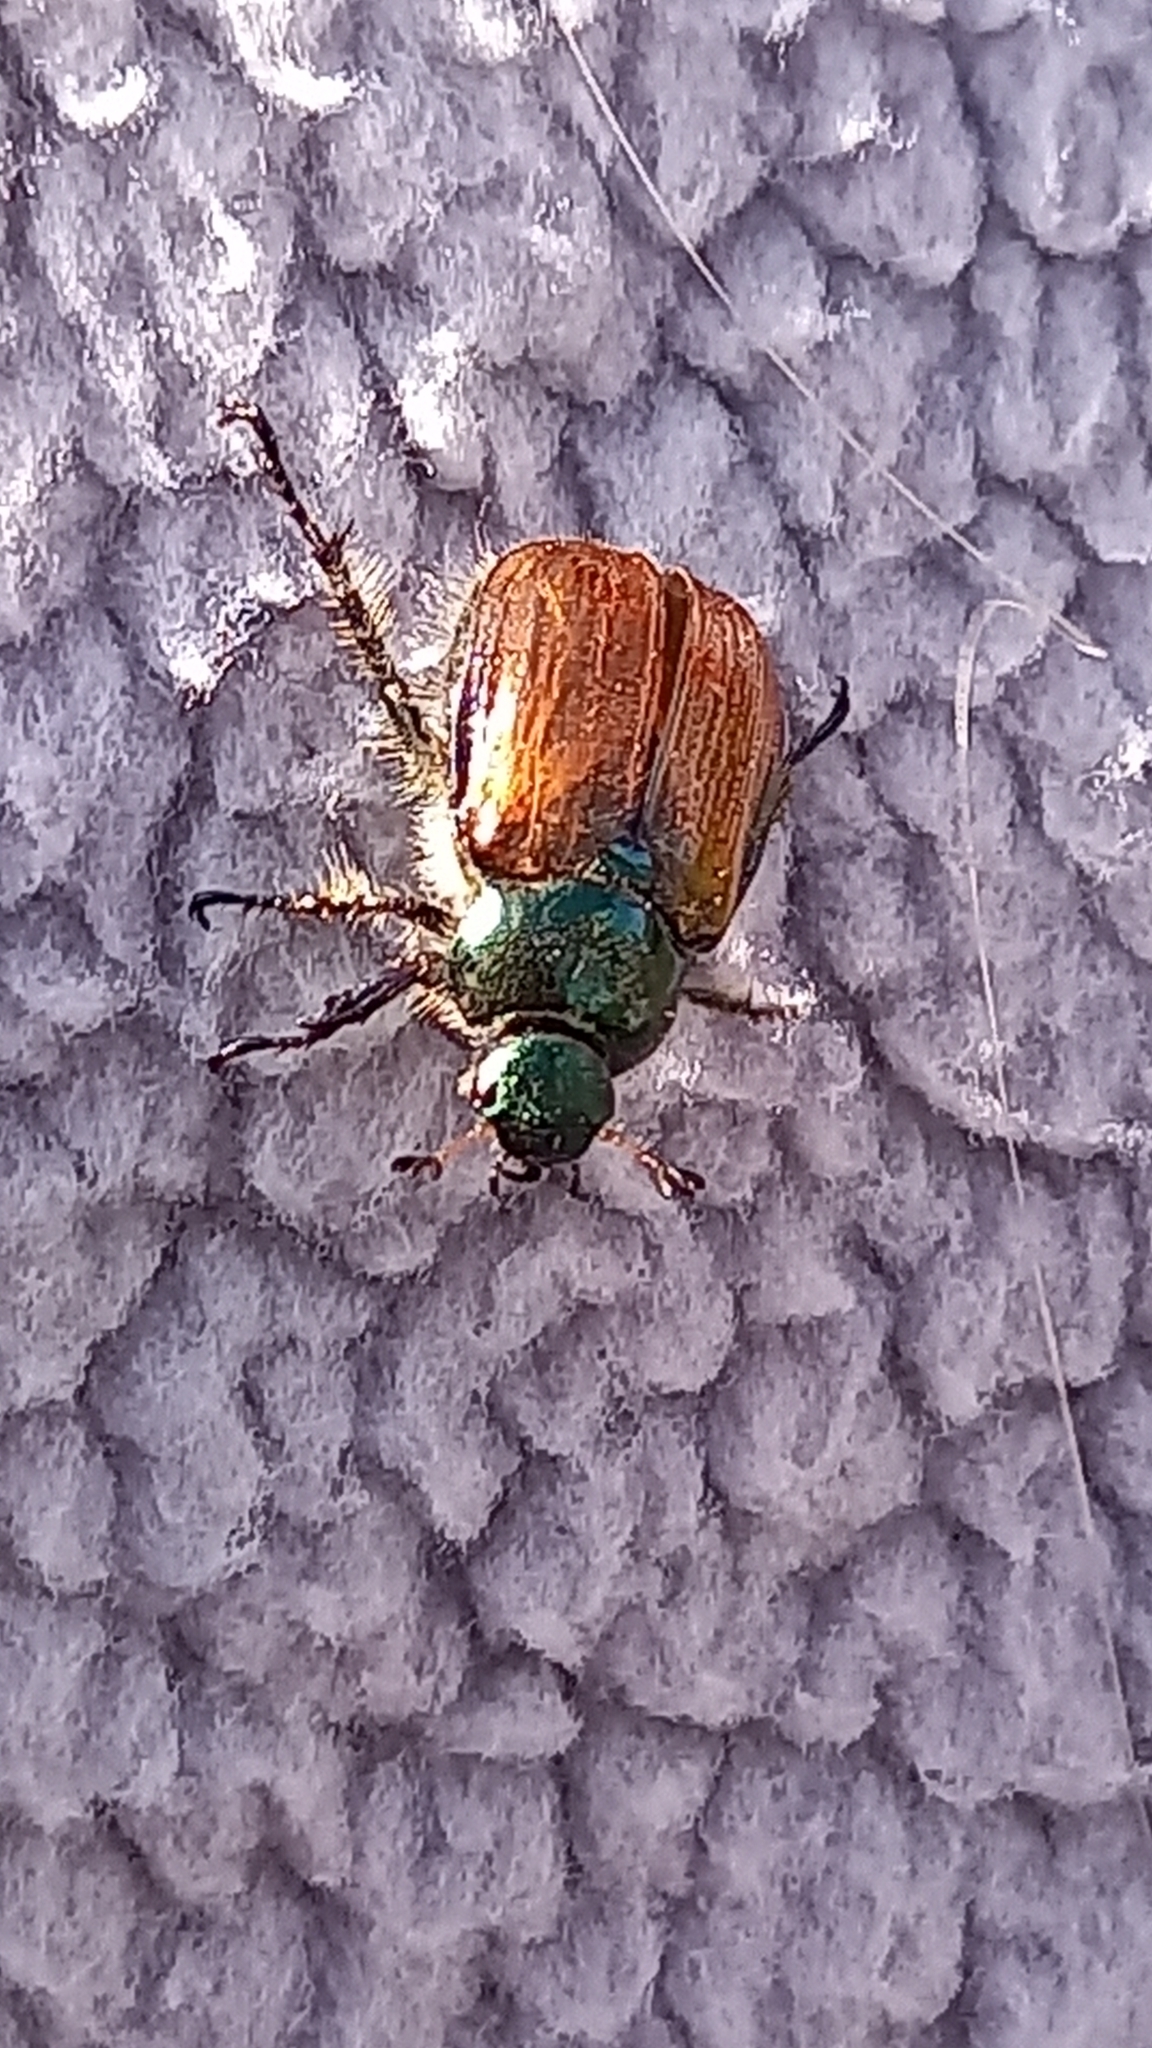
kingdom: Animalia
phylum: Arthropoda
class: Insecta
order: Coleoptera
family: Scarabaeidae
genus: Phyllopertha
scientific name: Phyllopertha horticola
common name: Garden chafer
